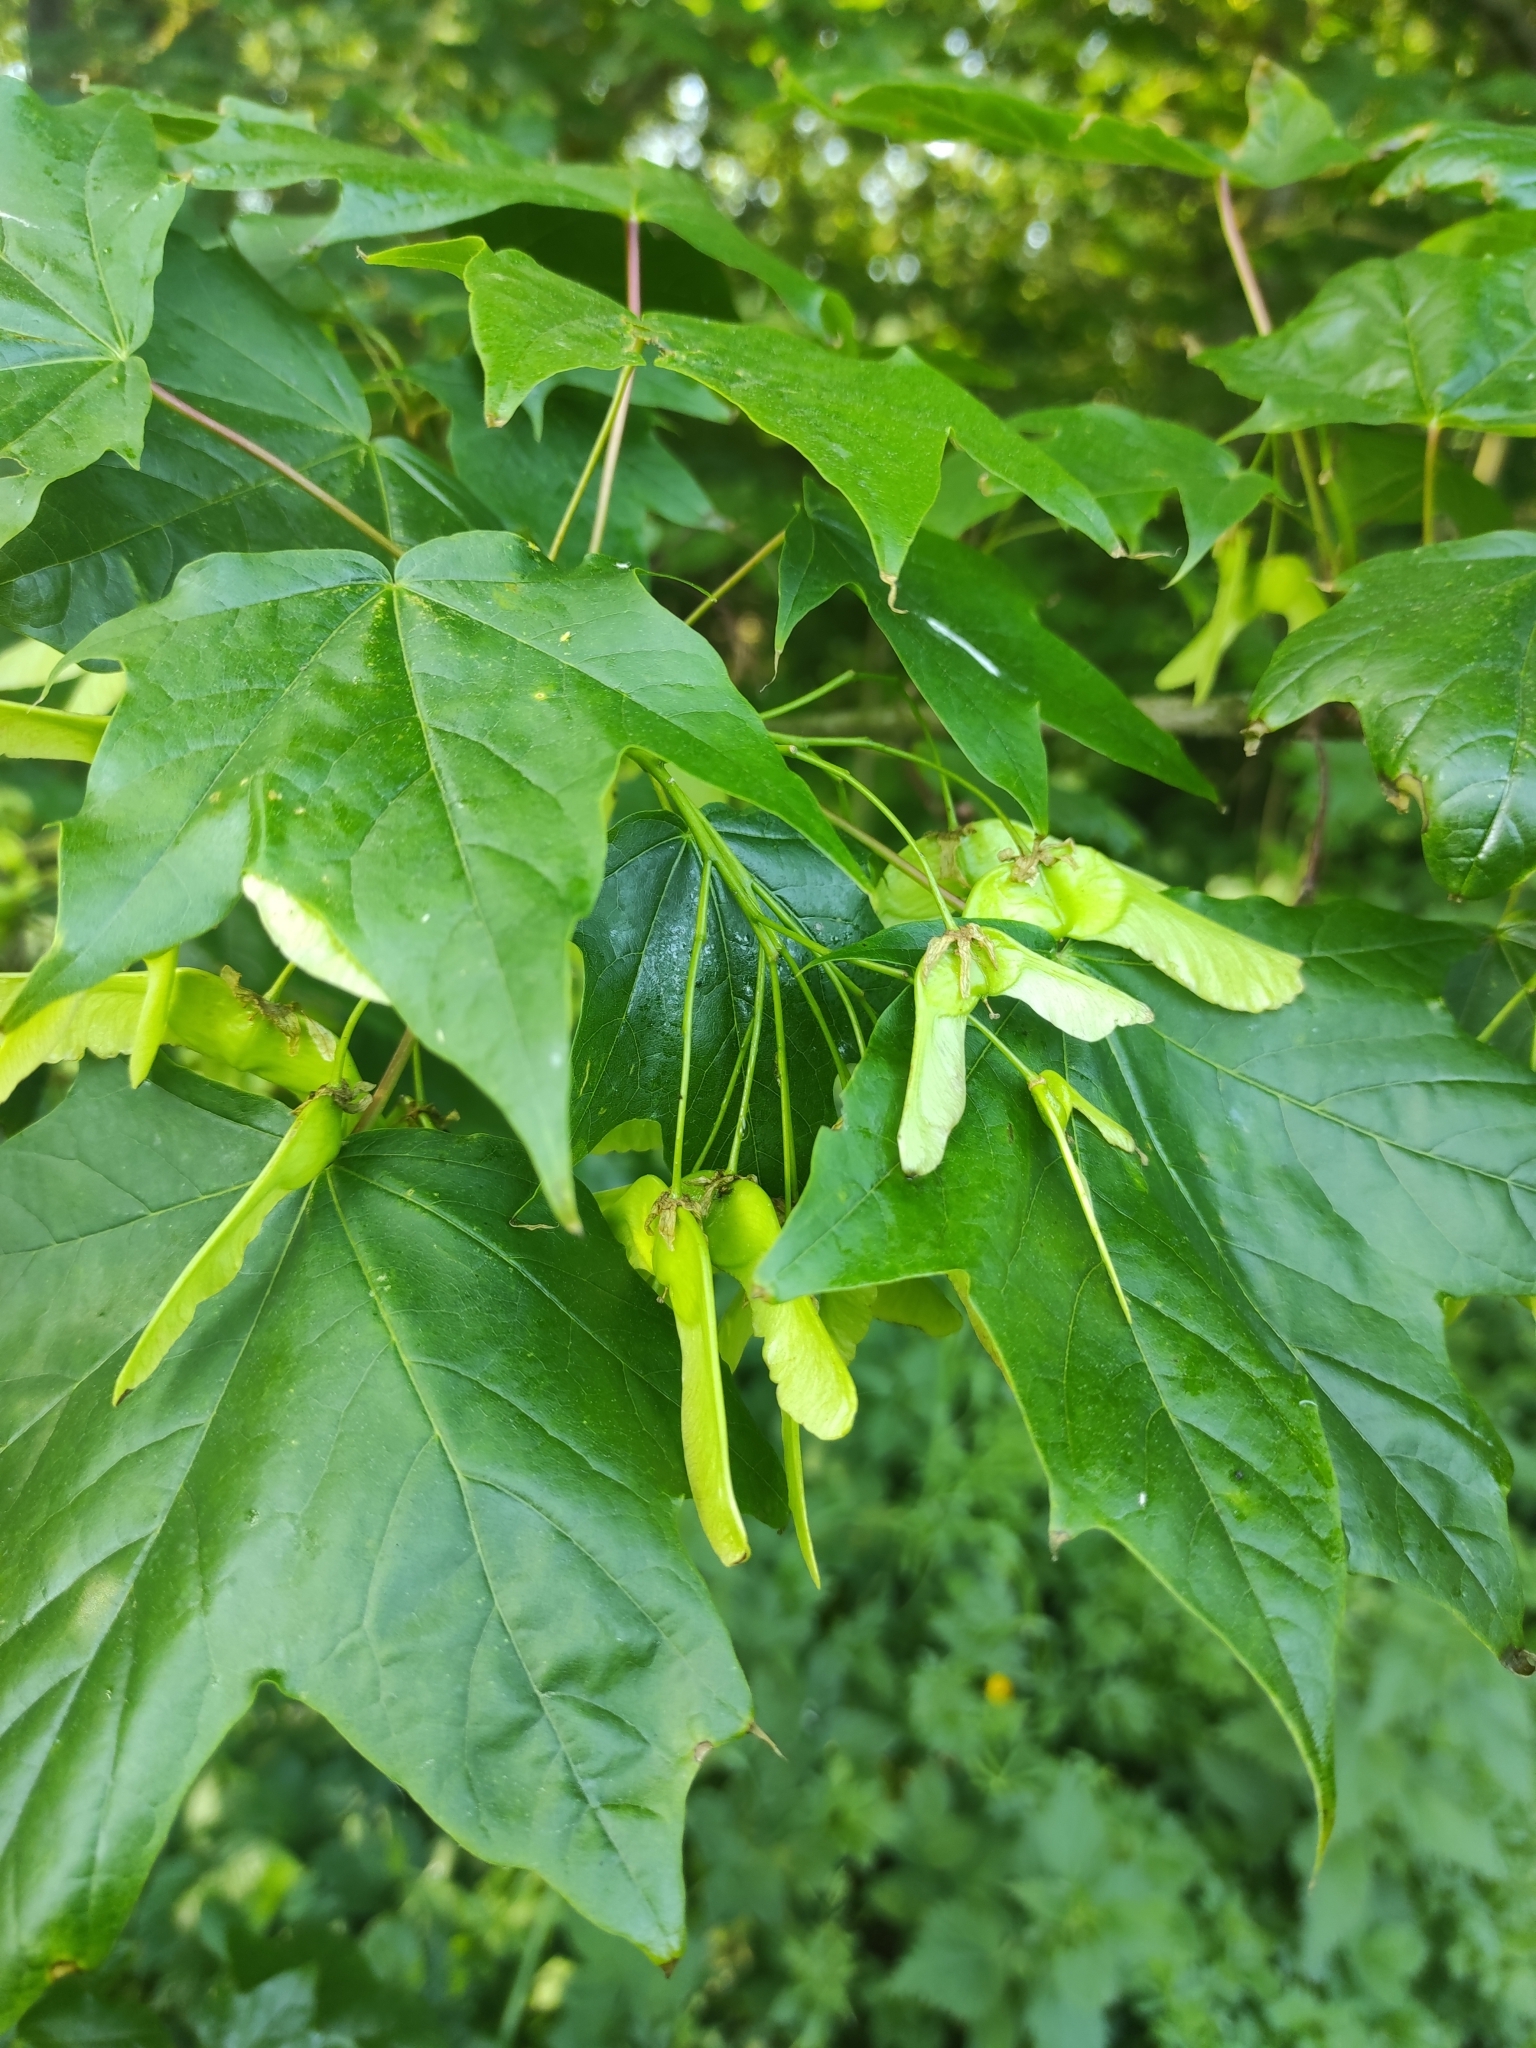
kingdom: Plantae
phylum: Tracheophyta
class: Magnoliopsida
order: Sapindales
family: Sapindaceae
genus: Acer
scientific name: Acer platanoides
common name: Norway maple
